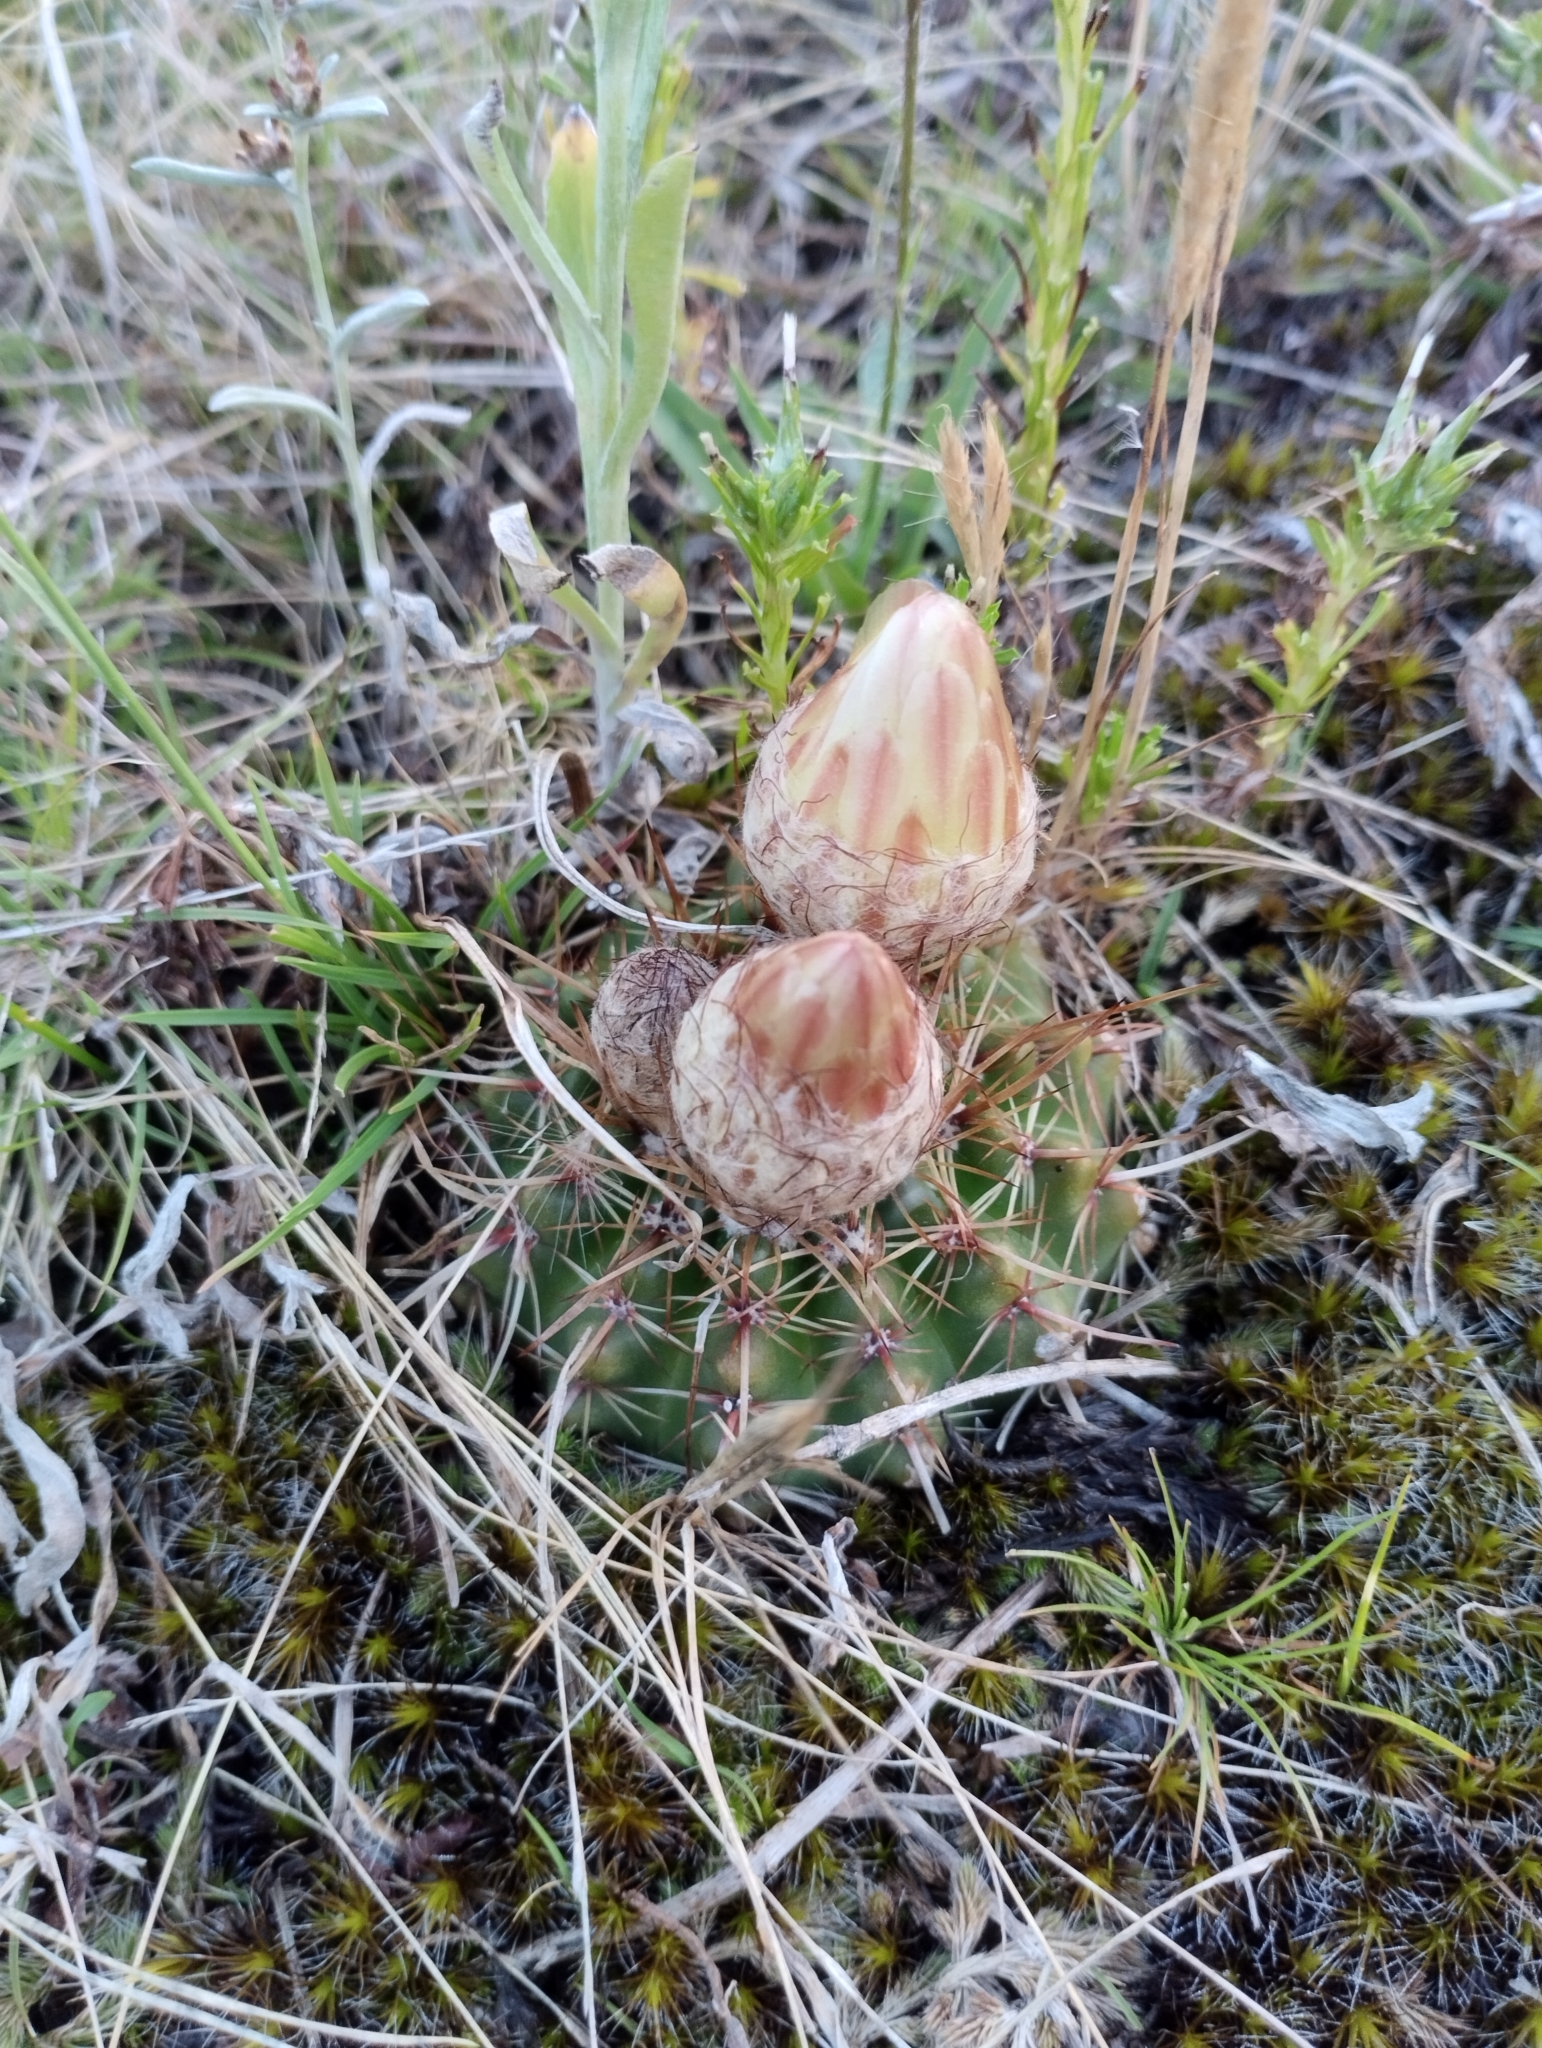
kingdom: Plantae
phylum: Tracheophyta
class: Magnoliopsida
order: Caryophyllales
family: Cactaceae
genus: Parodia
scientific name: Parodia mammulosa
